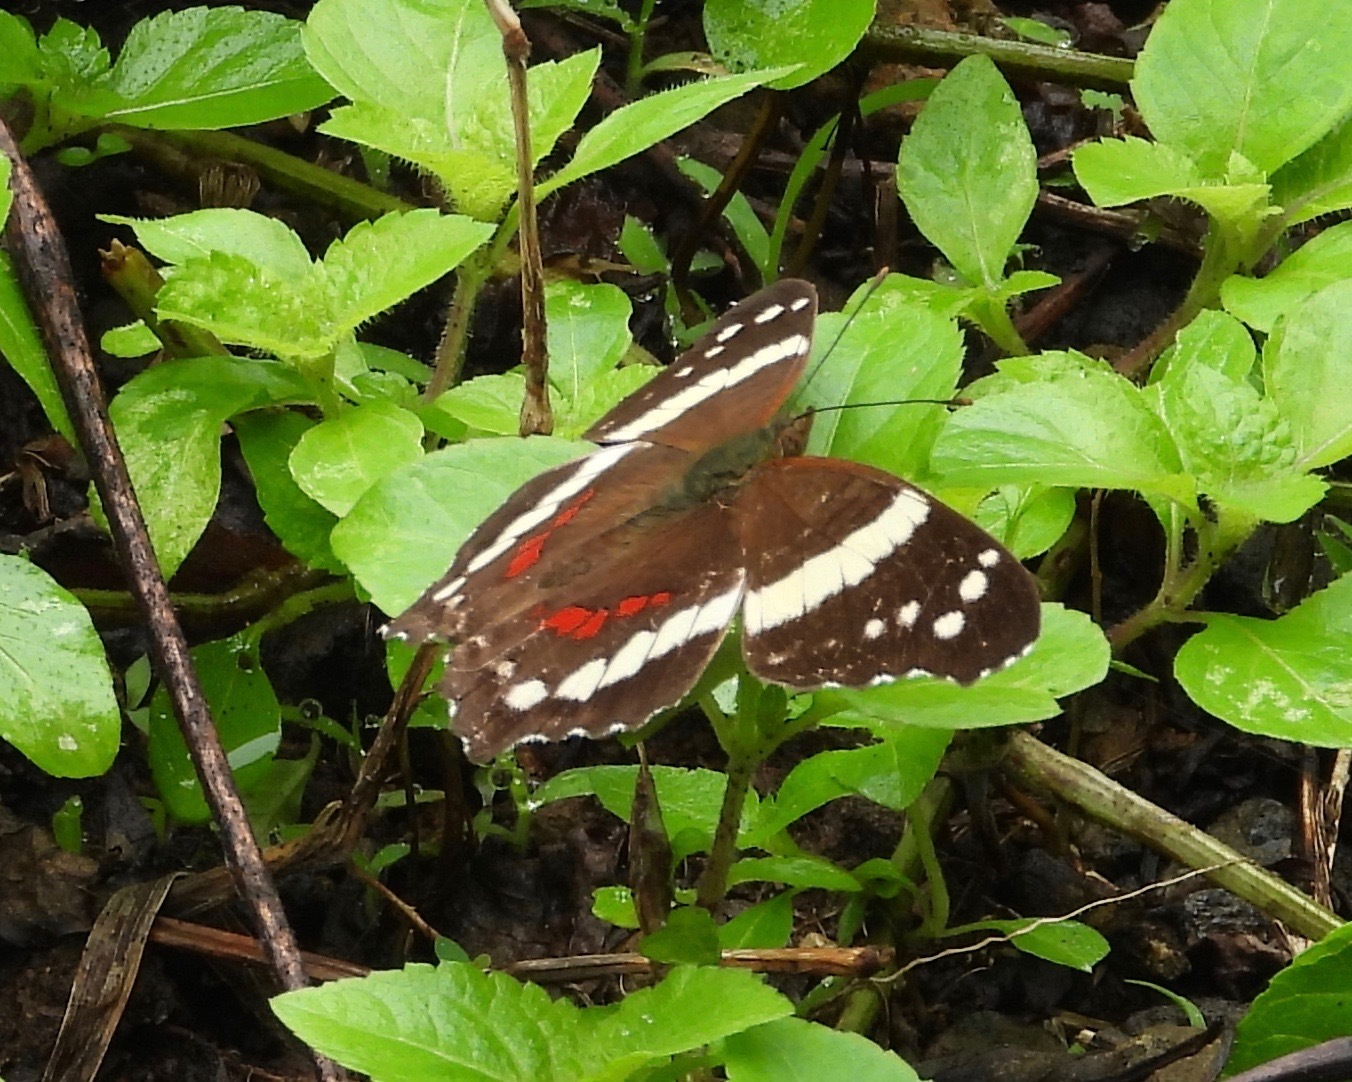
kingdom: Animalia
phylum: Arthropoda
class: Insecta
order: Lepidoptera
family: Nymphalidae
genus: Anartia
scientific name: Anartia fatima
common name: Banded peacock
